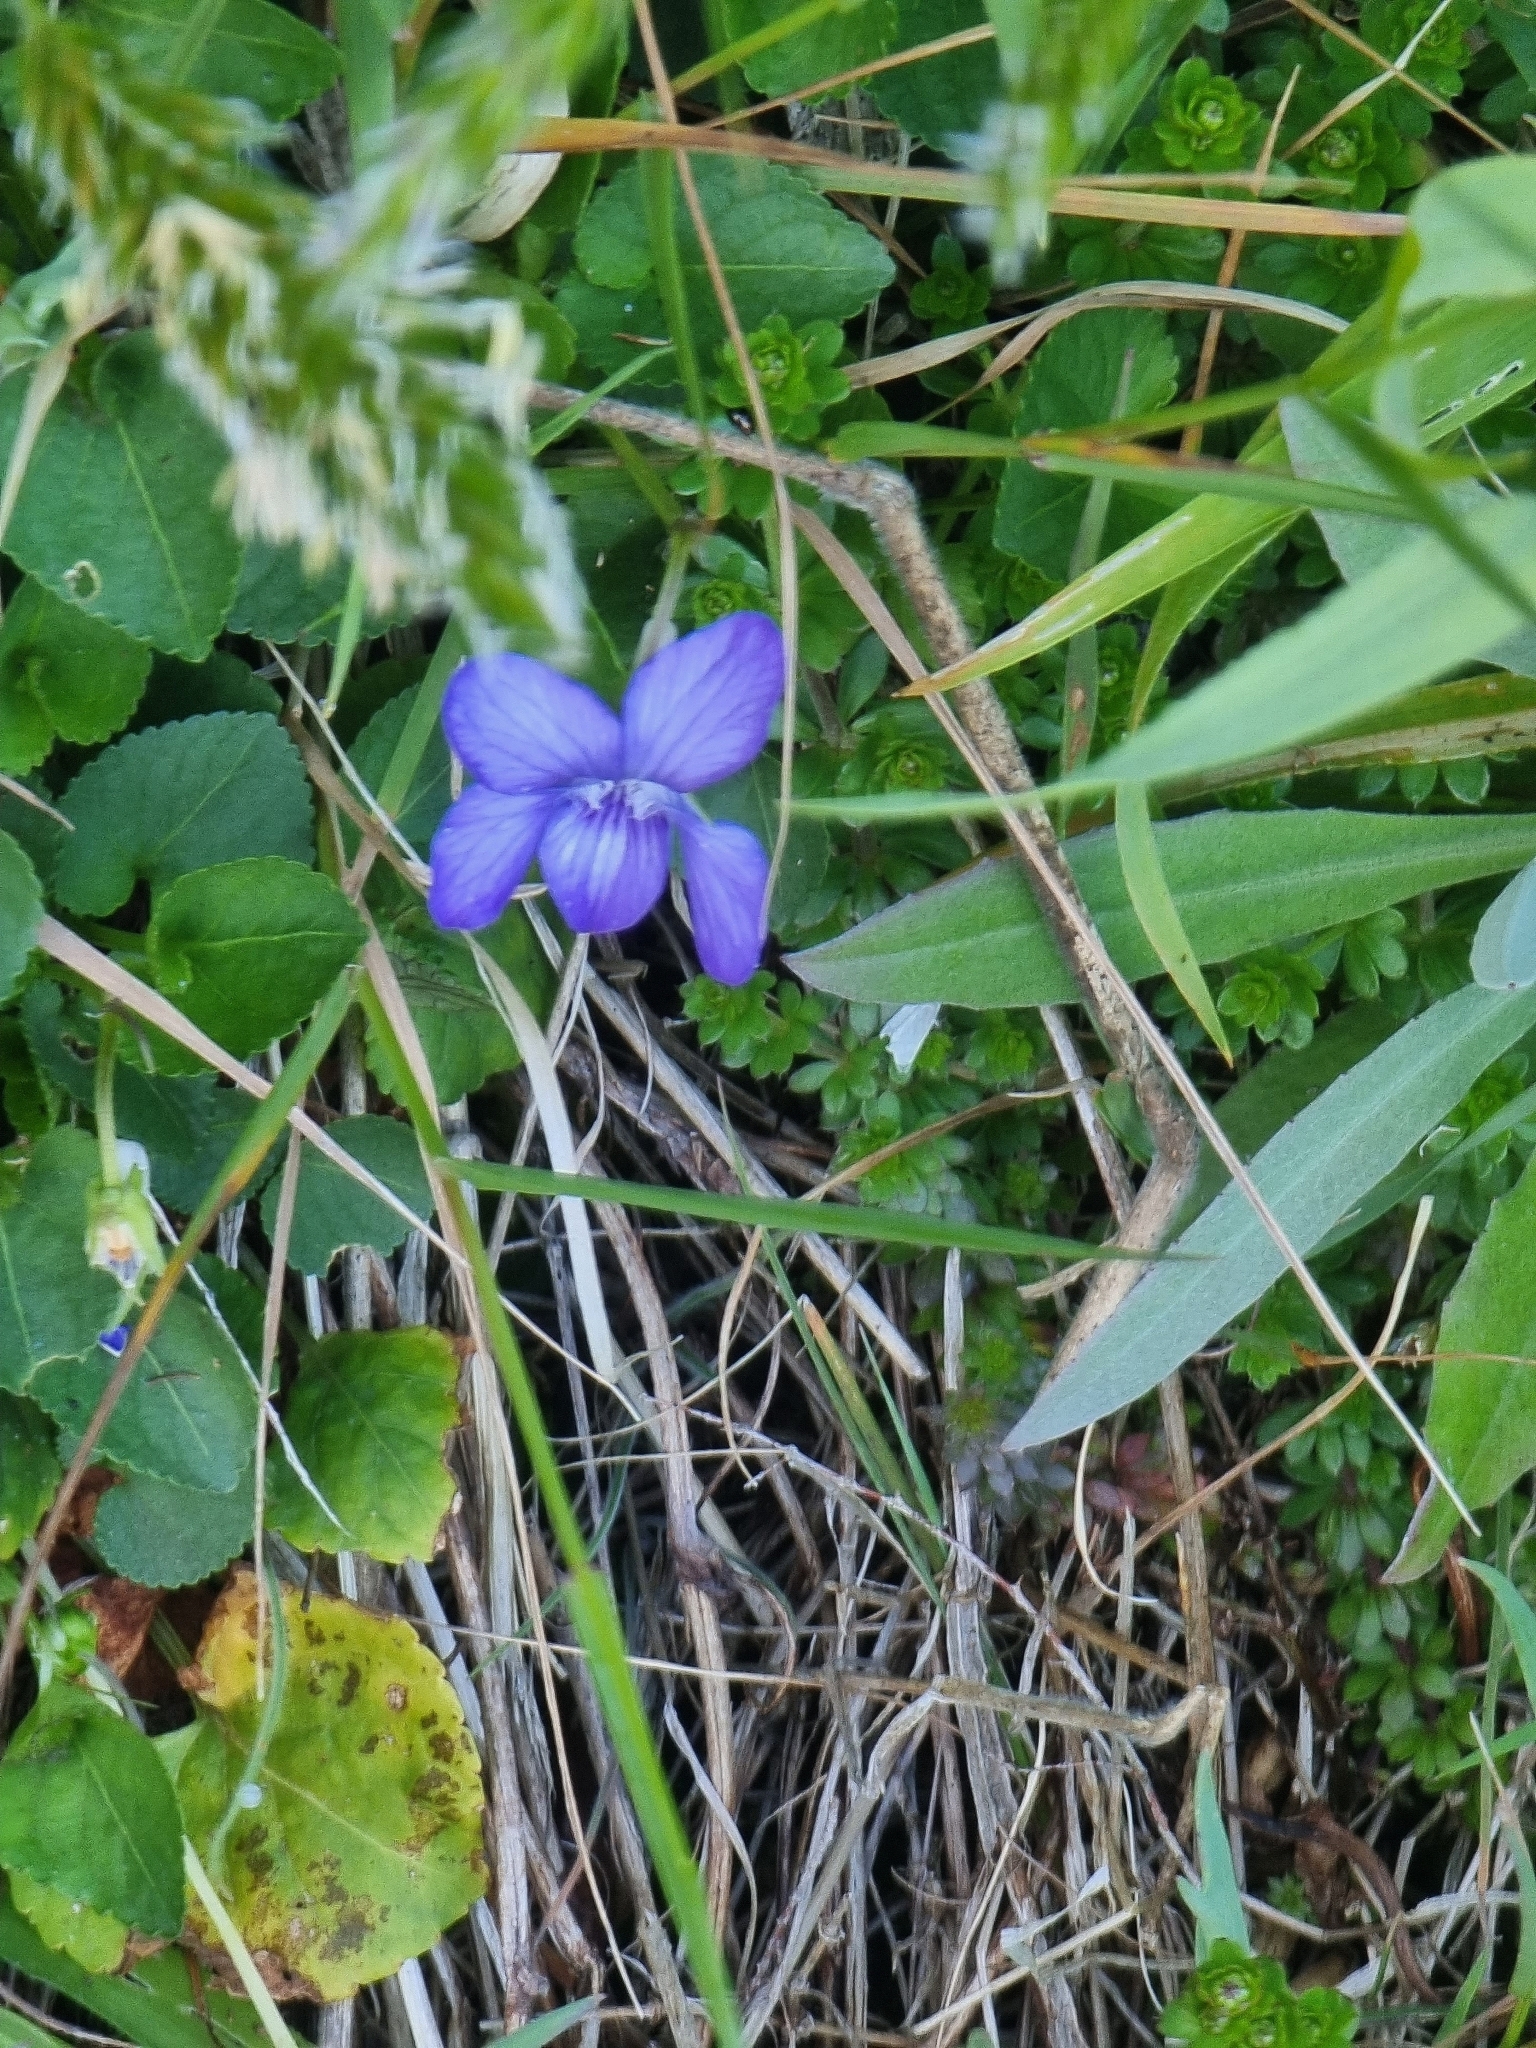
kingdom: Plantae
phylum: Tracheophyta
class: Magnoliopsida
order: Malpighiales
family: Violaceae
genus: Viola
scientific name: Viola riviniana
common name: Common dog-violet
